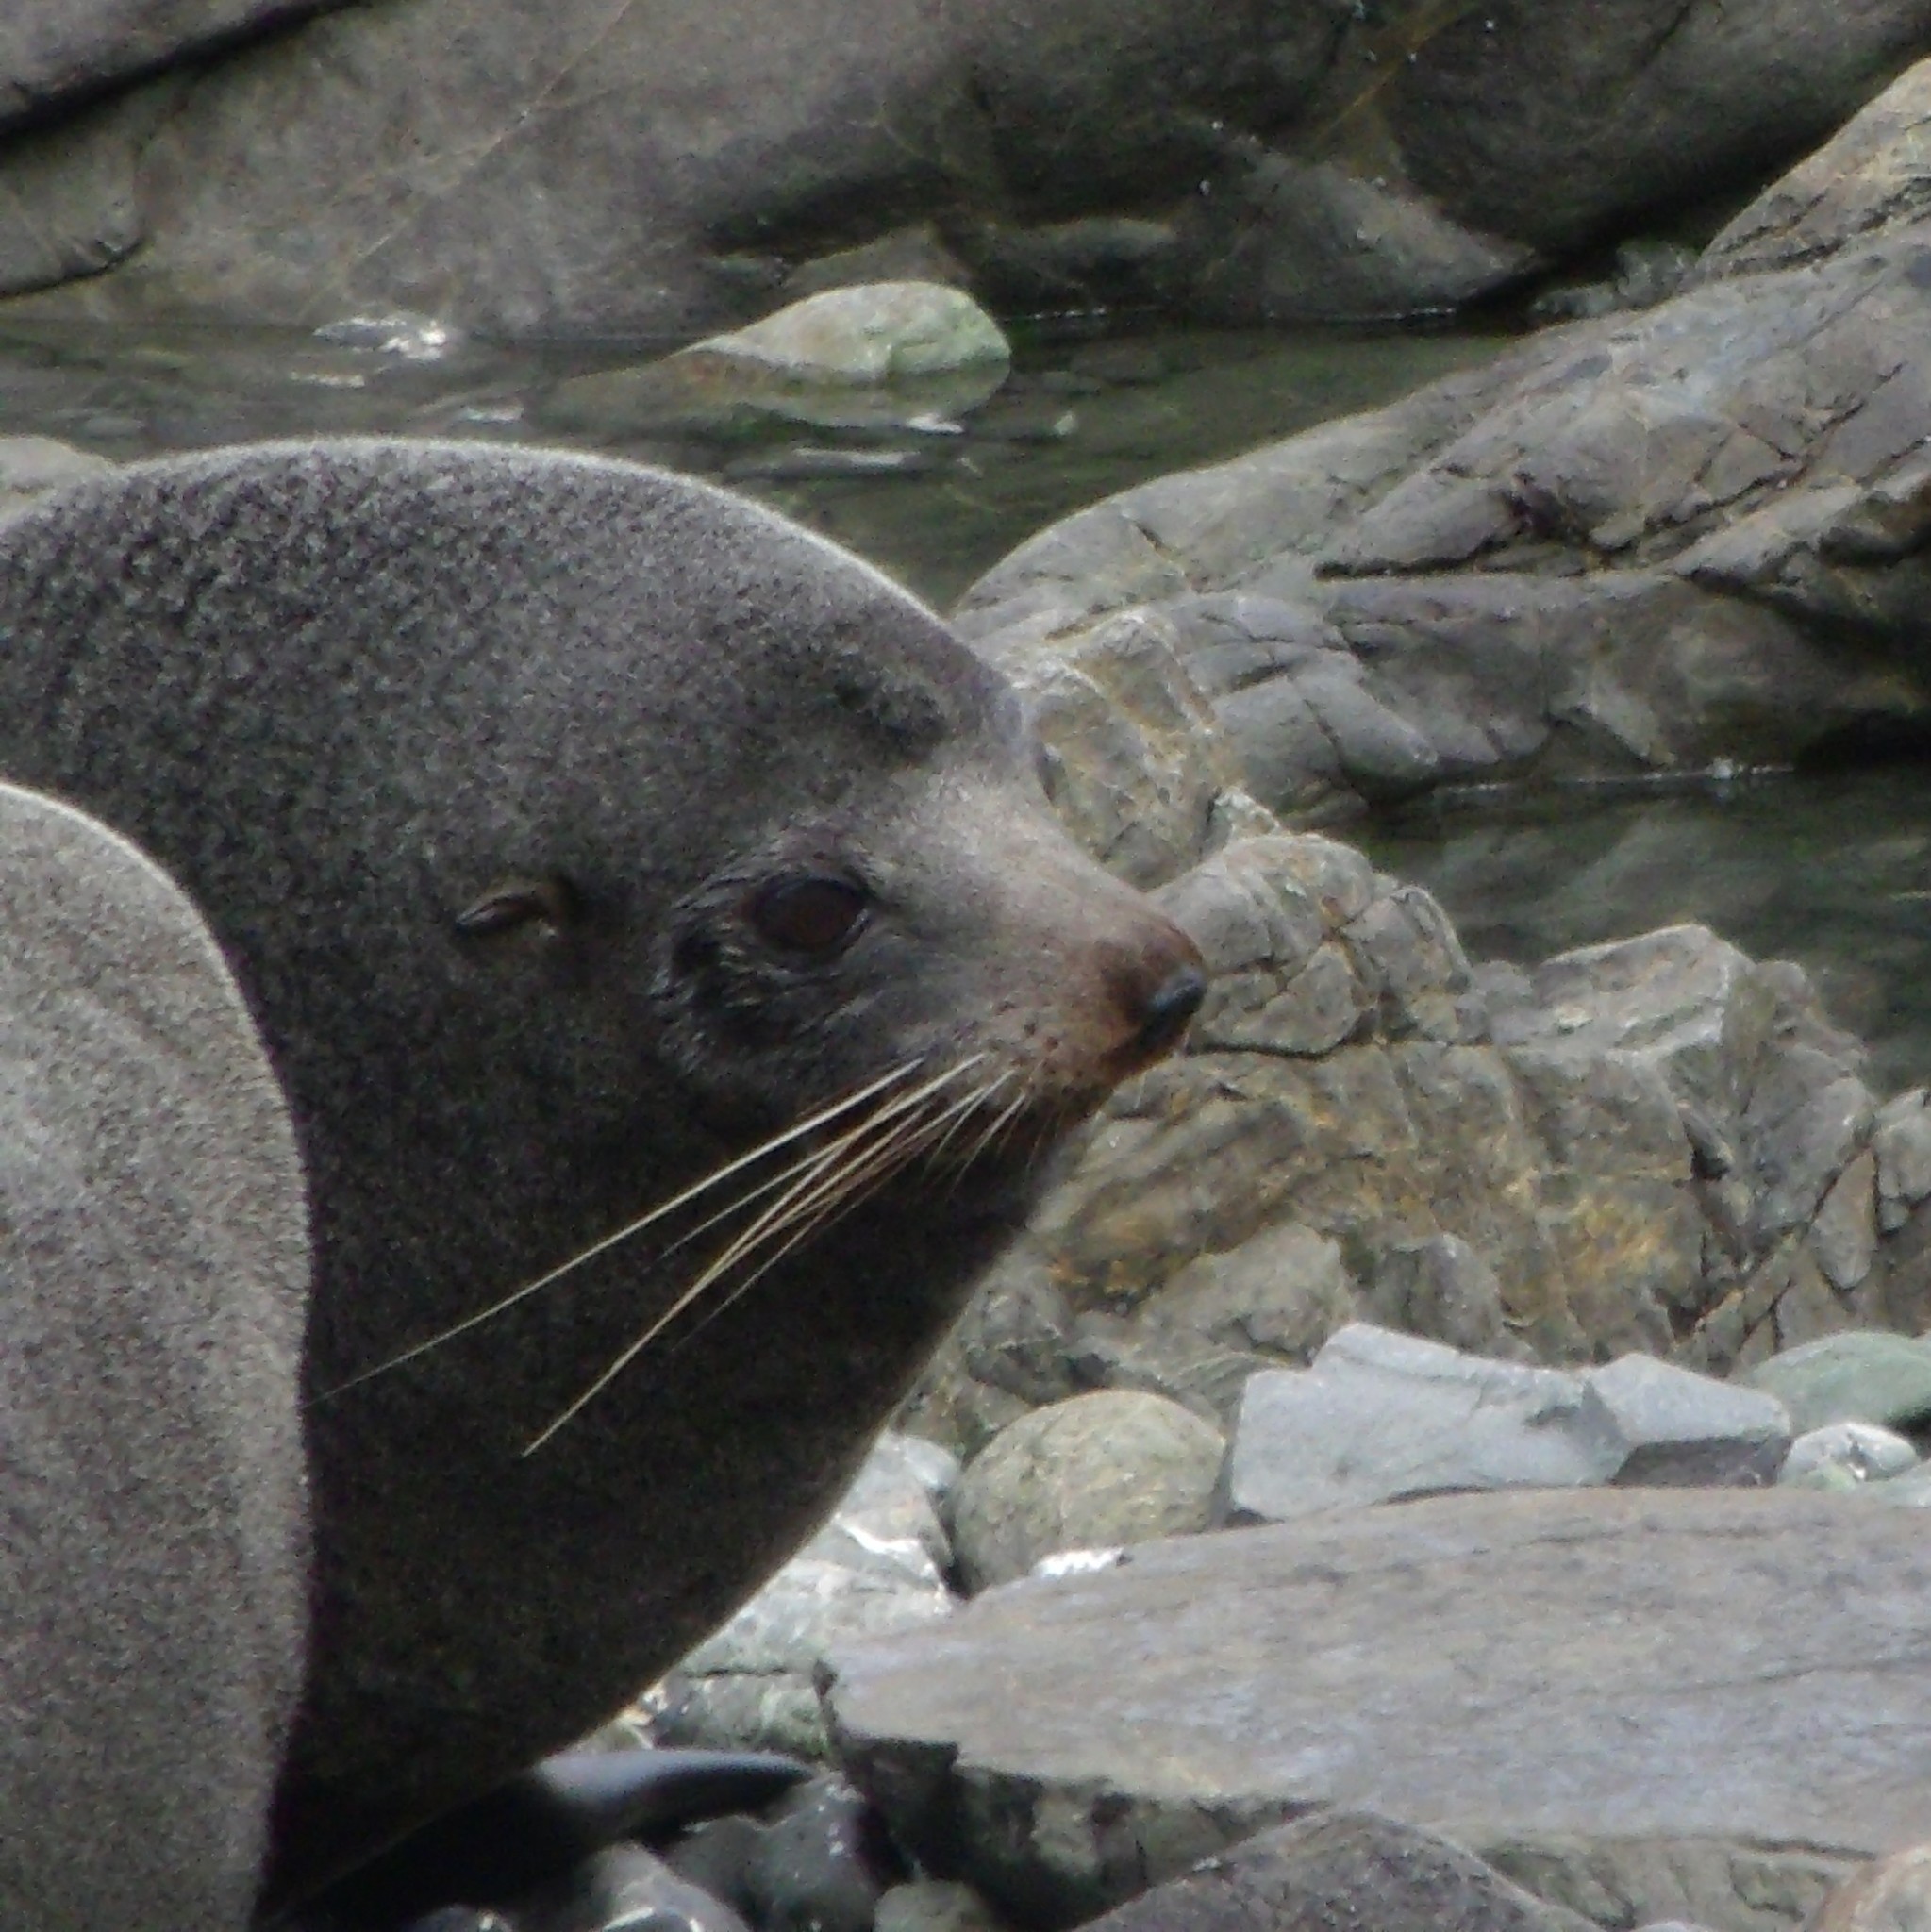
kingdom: Animalia
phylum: Chordata
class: Mammalia
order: Carnivora
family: Otariidae
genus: Arctocephalus
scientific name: Arctocephalus forsteri
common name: New zealand fur seal
